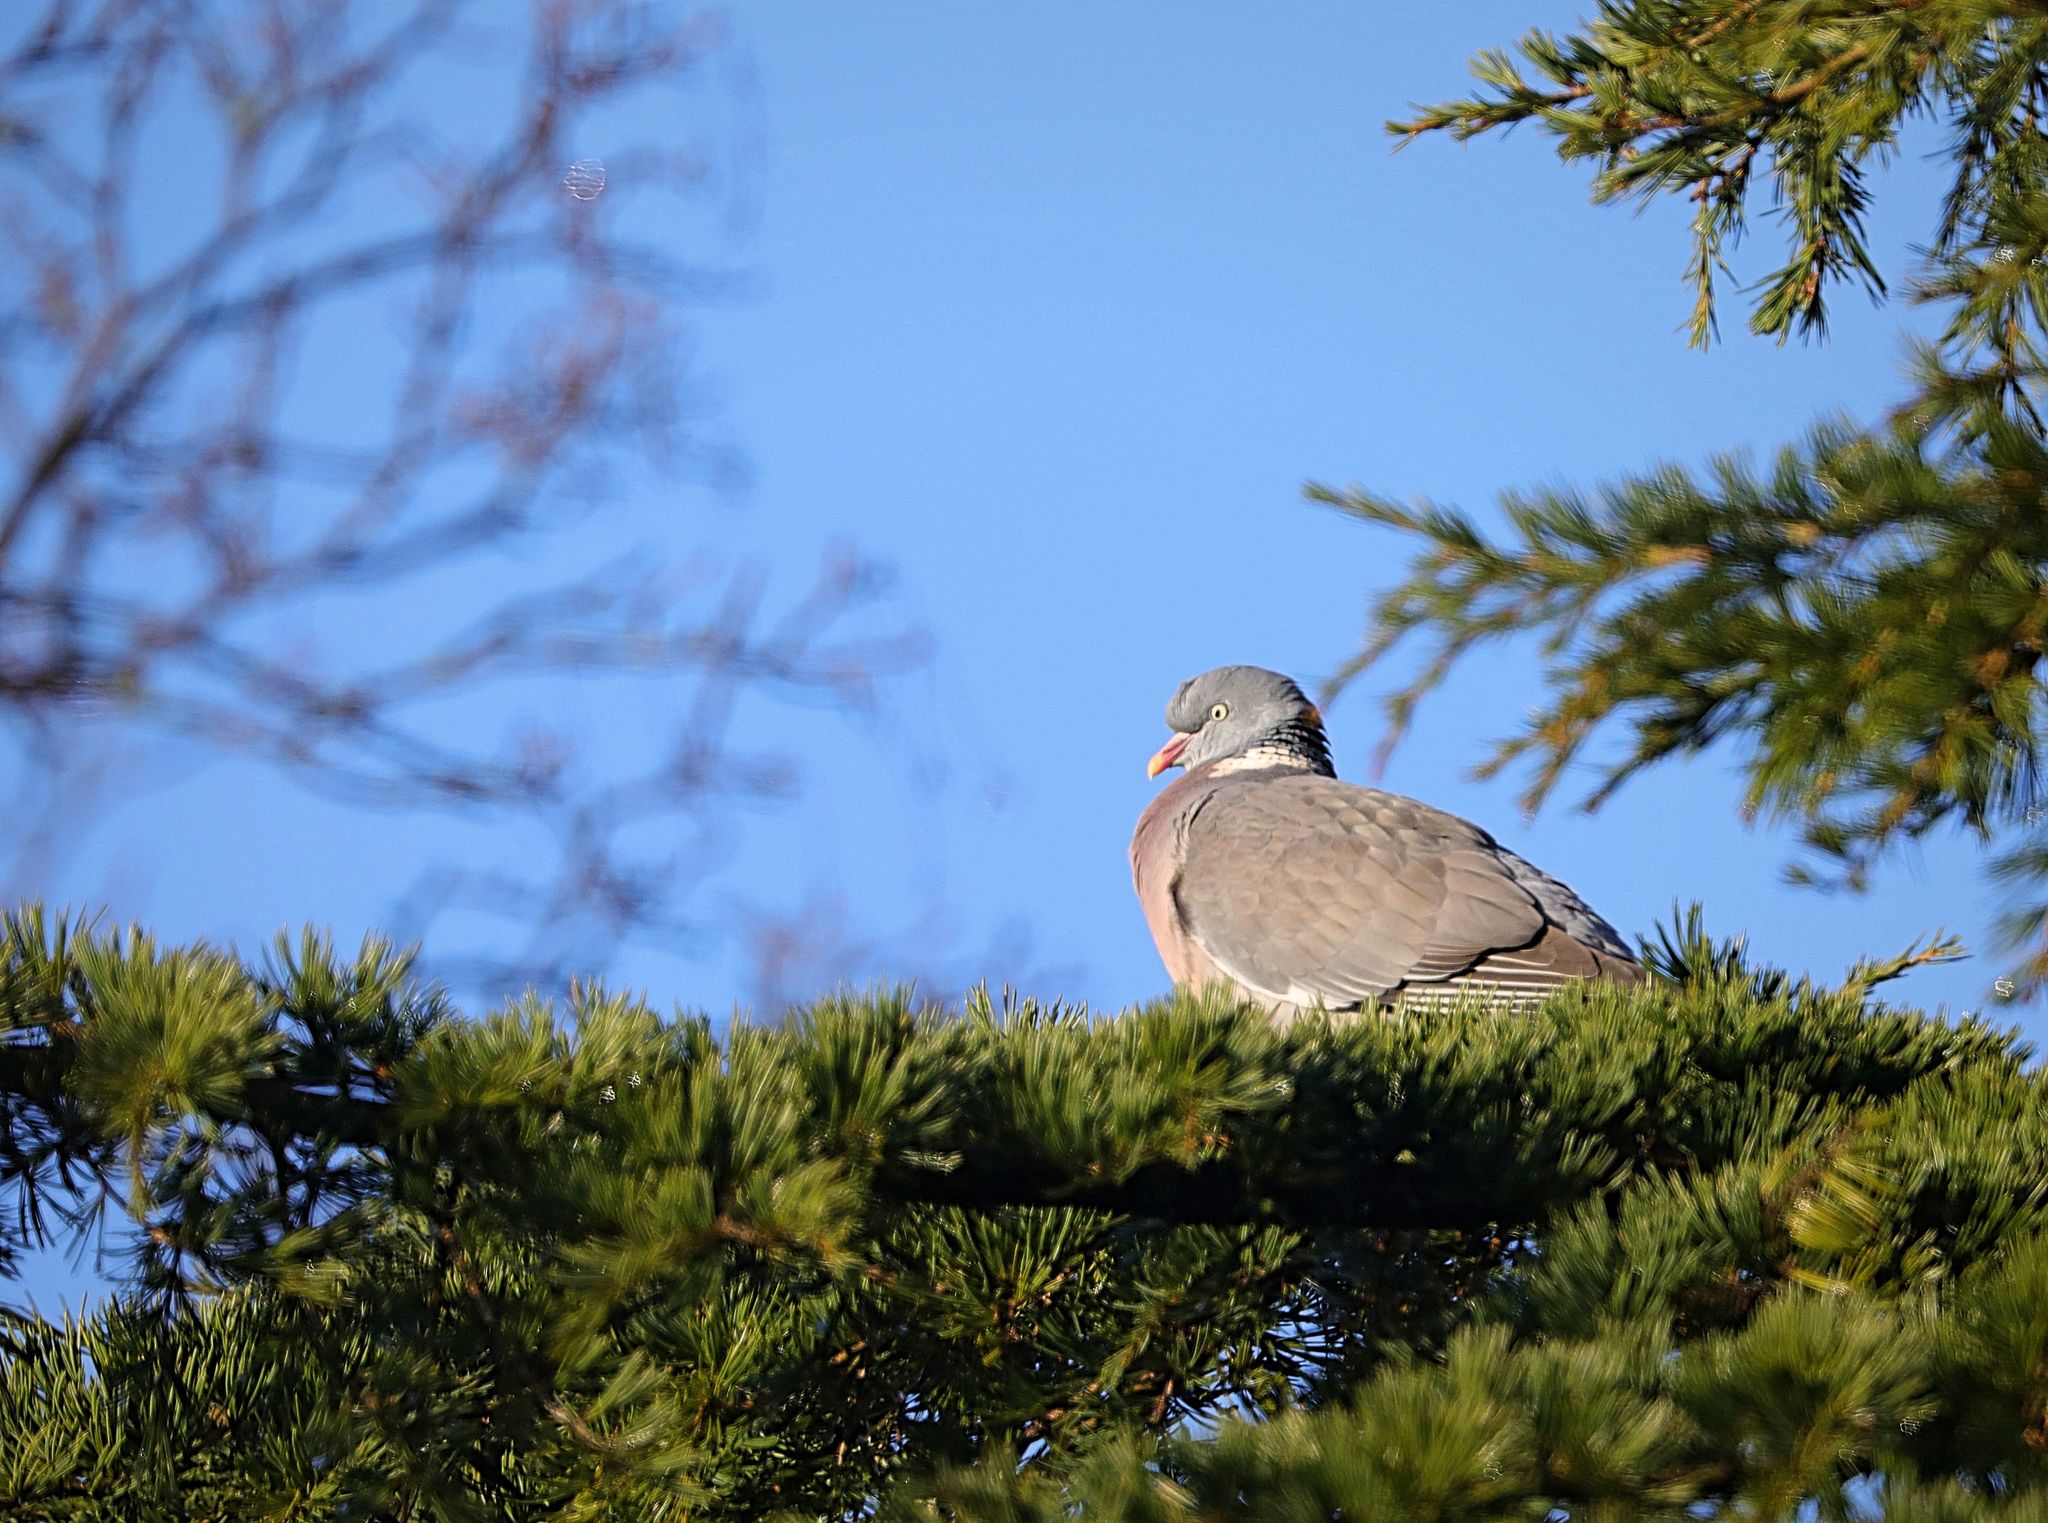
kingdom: Animalia
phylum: Chordata
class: Aves
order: Columbiformes
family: Columbidae
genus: Columba
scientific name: Columba palumbus
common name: Common wood pigeon
